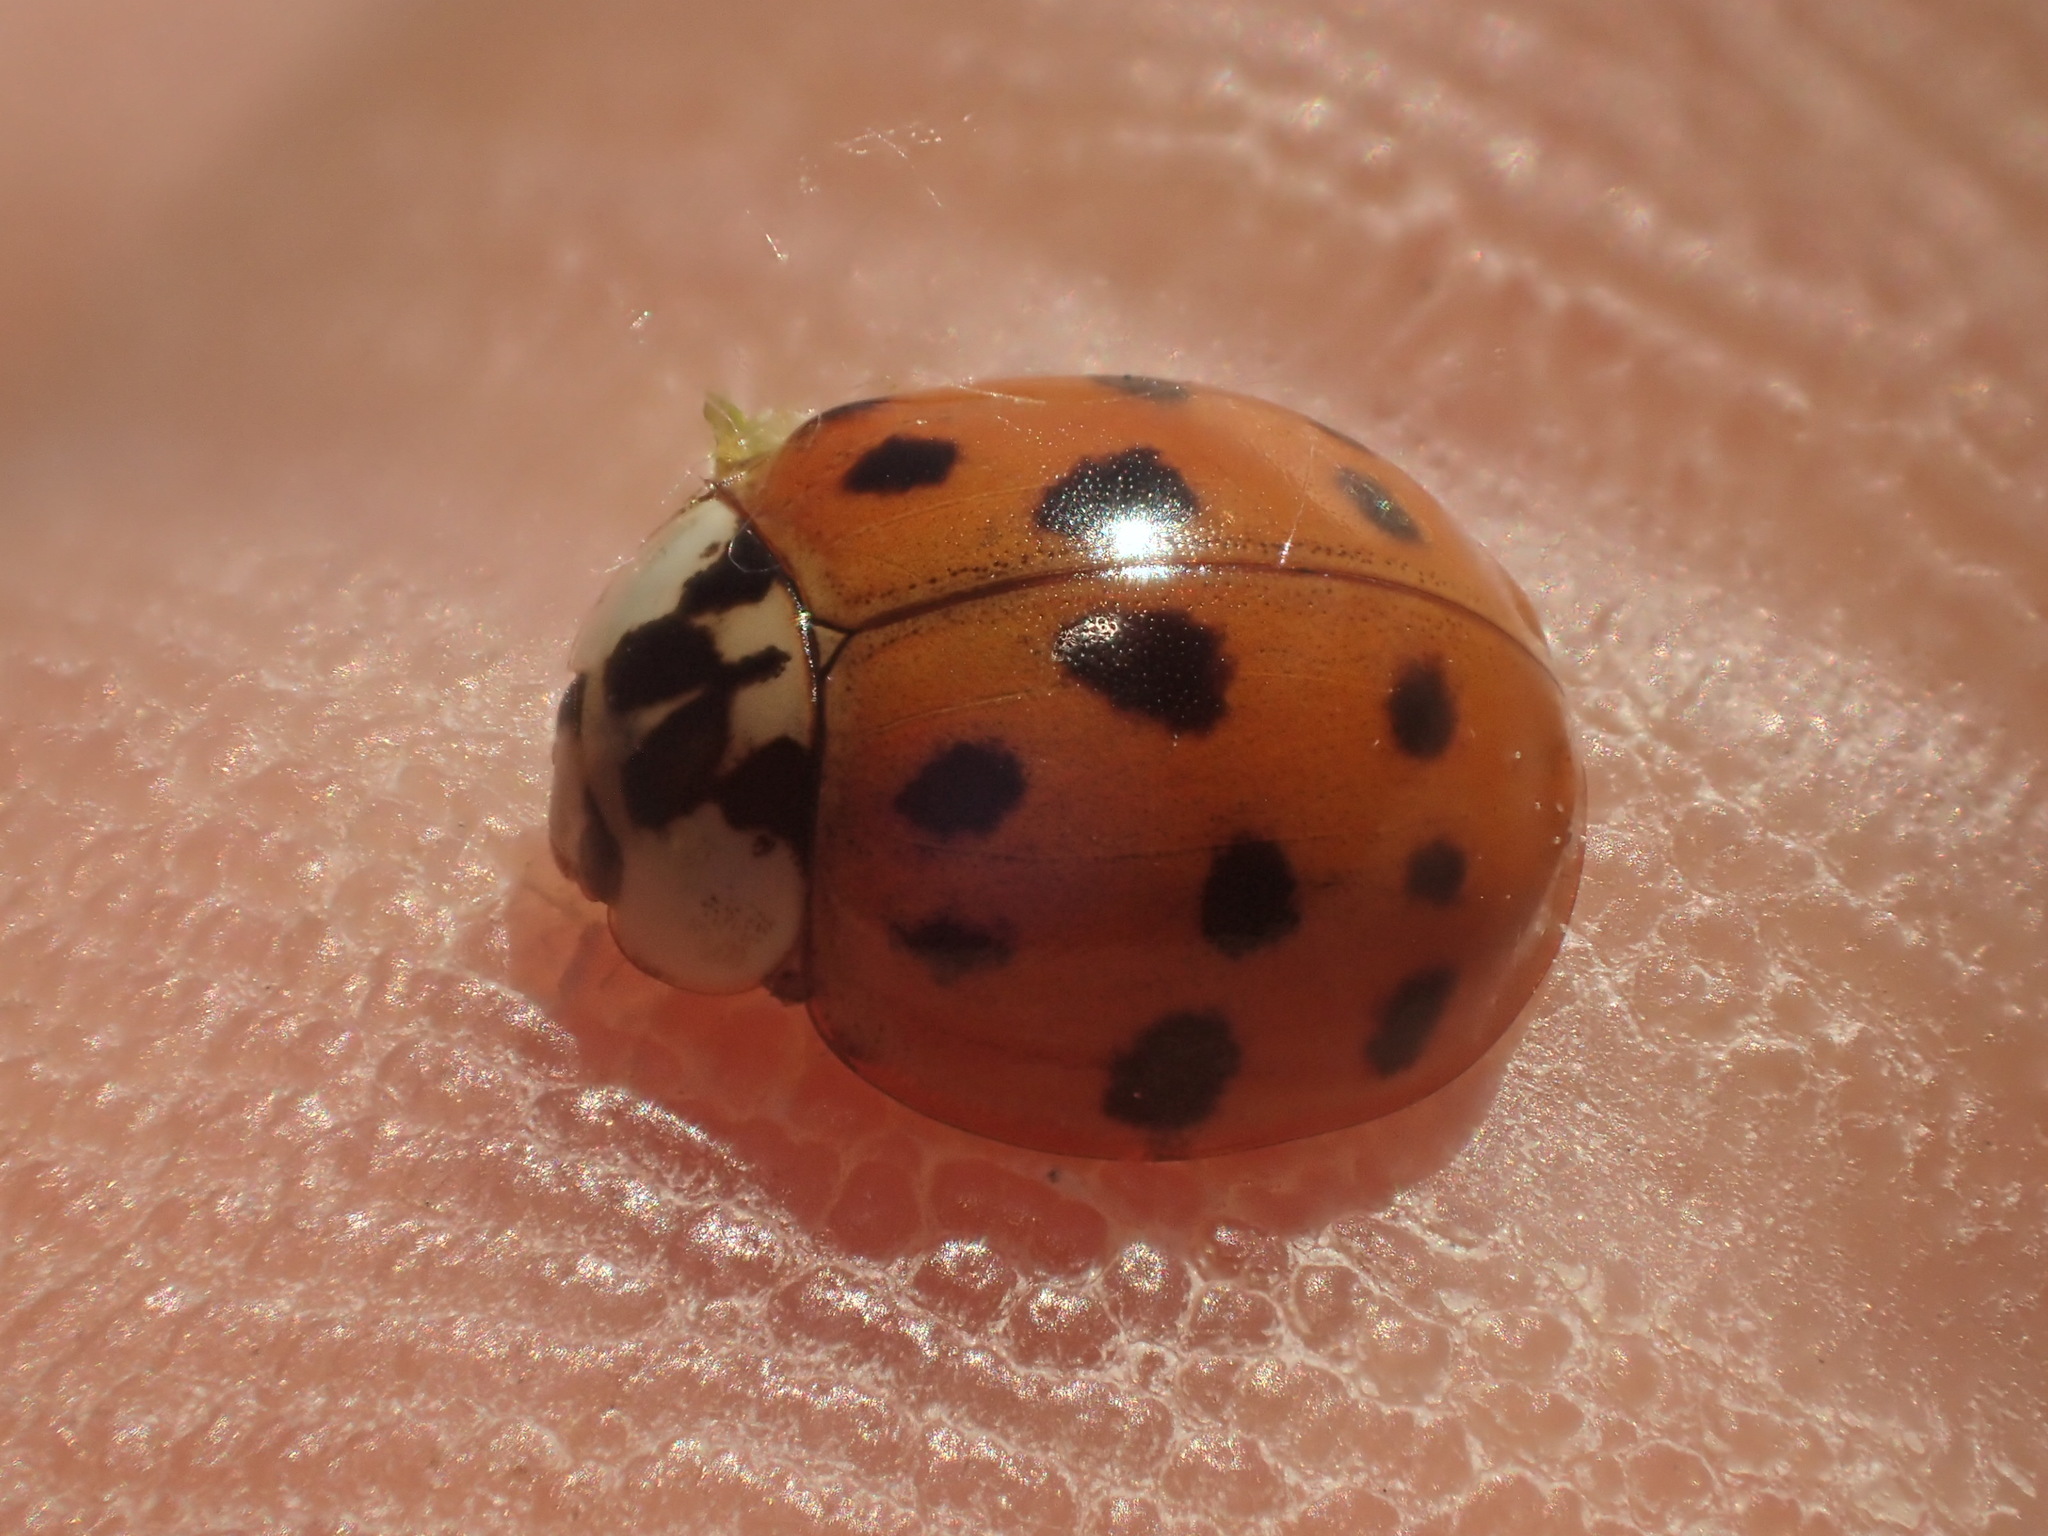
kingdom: Animalia
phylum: Arthropoda
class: Insecta
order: Coleoptera
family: Coccinellidae
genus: Harmonia
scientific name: Harmonia axyridis
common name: Harlequin ladybird
